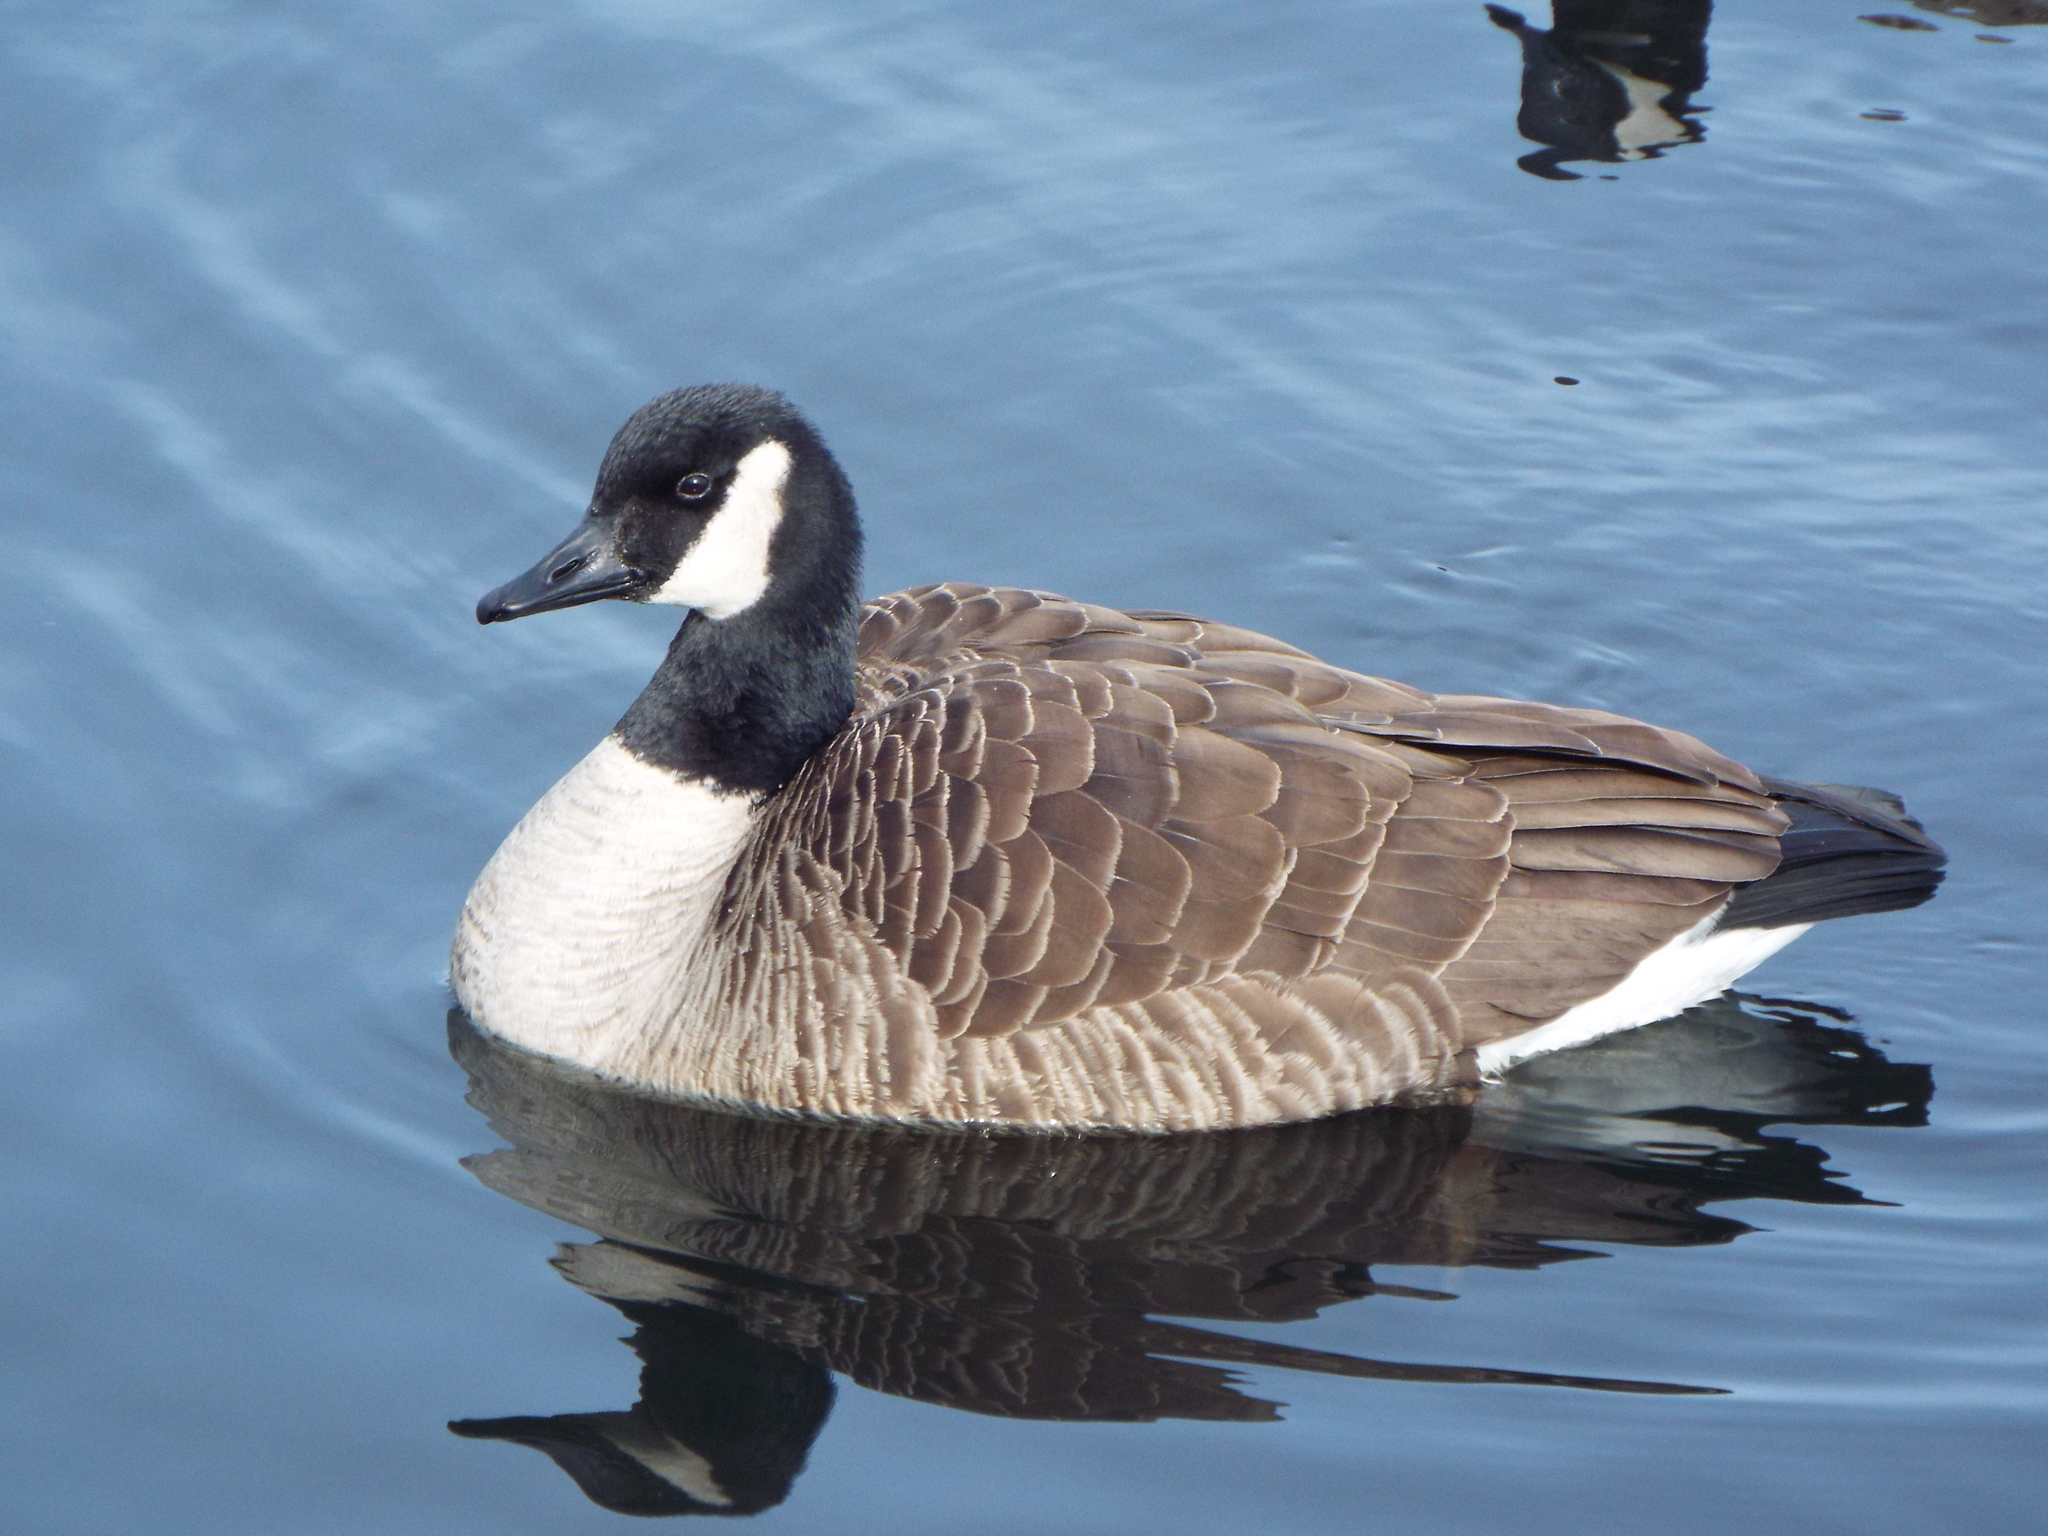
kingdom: Animalia
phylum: Chordata
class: Aves
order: Anseriformes
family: Anatidae
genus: Branta
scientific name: Branta canadensis
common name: Canada goose
